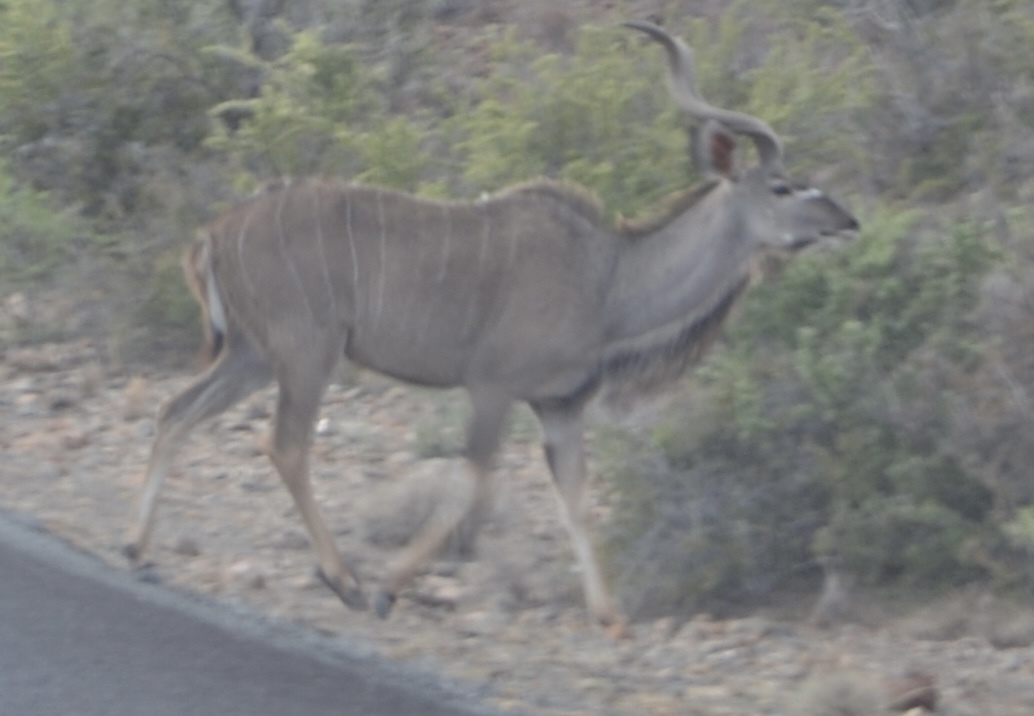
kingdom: Animalia
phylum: Chordata
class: Mammalia
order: Artiodactyla
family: Bovidae
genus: Tragelaphus
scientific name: Tragelaphus strepsiceros
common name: Greater kudu
